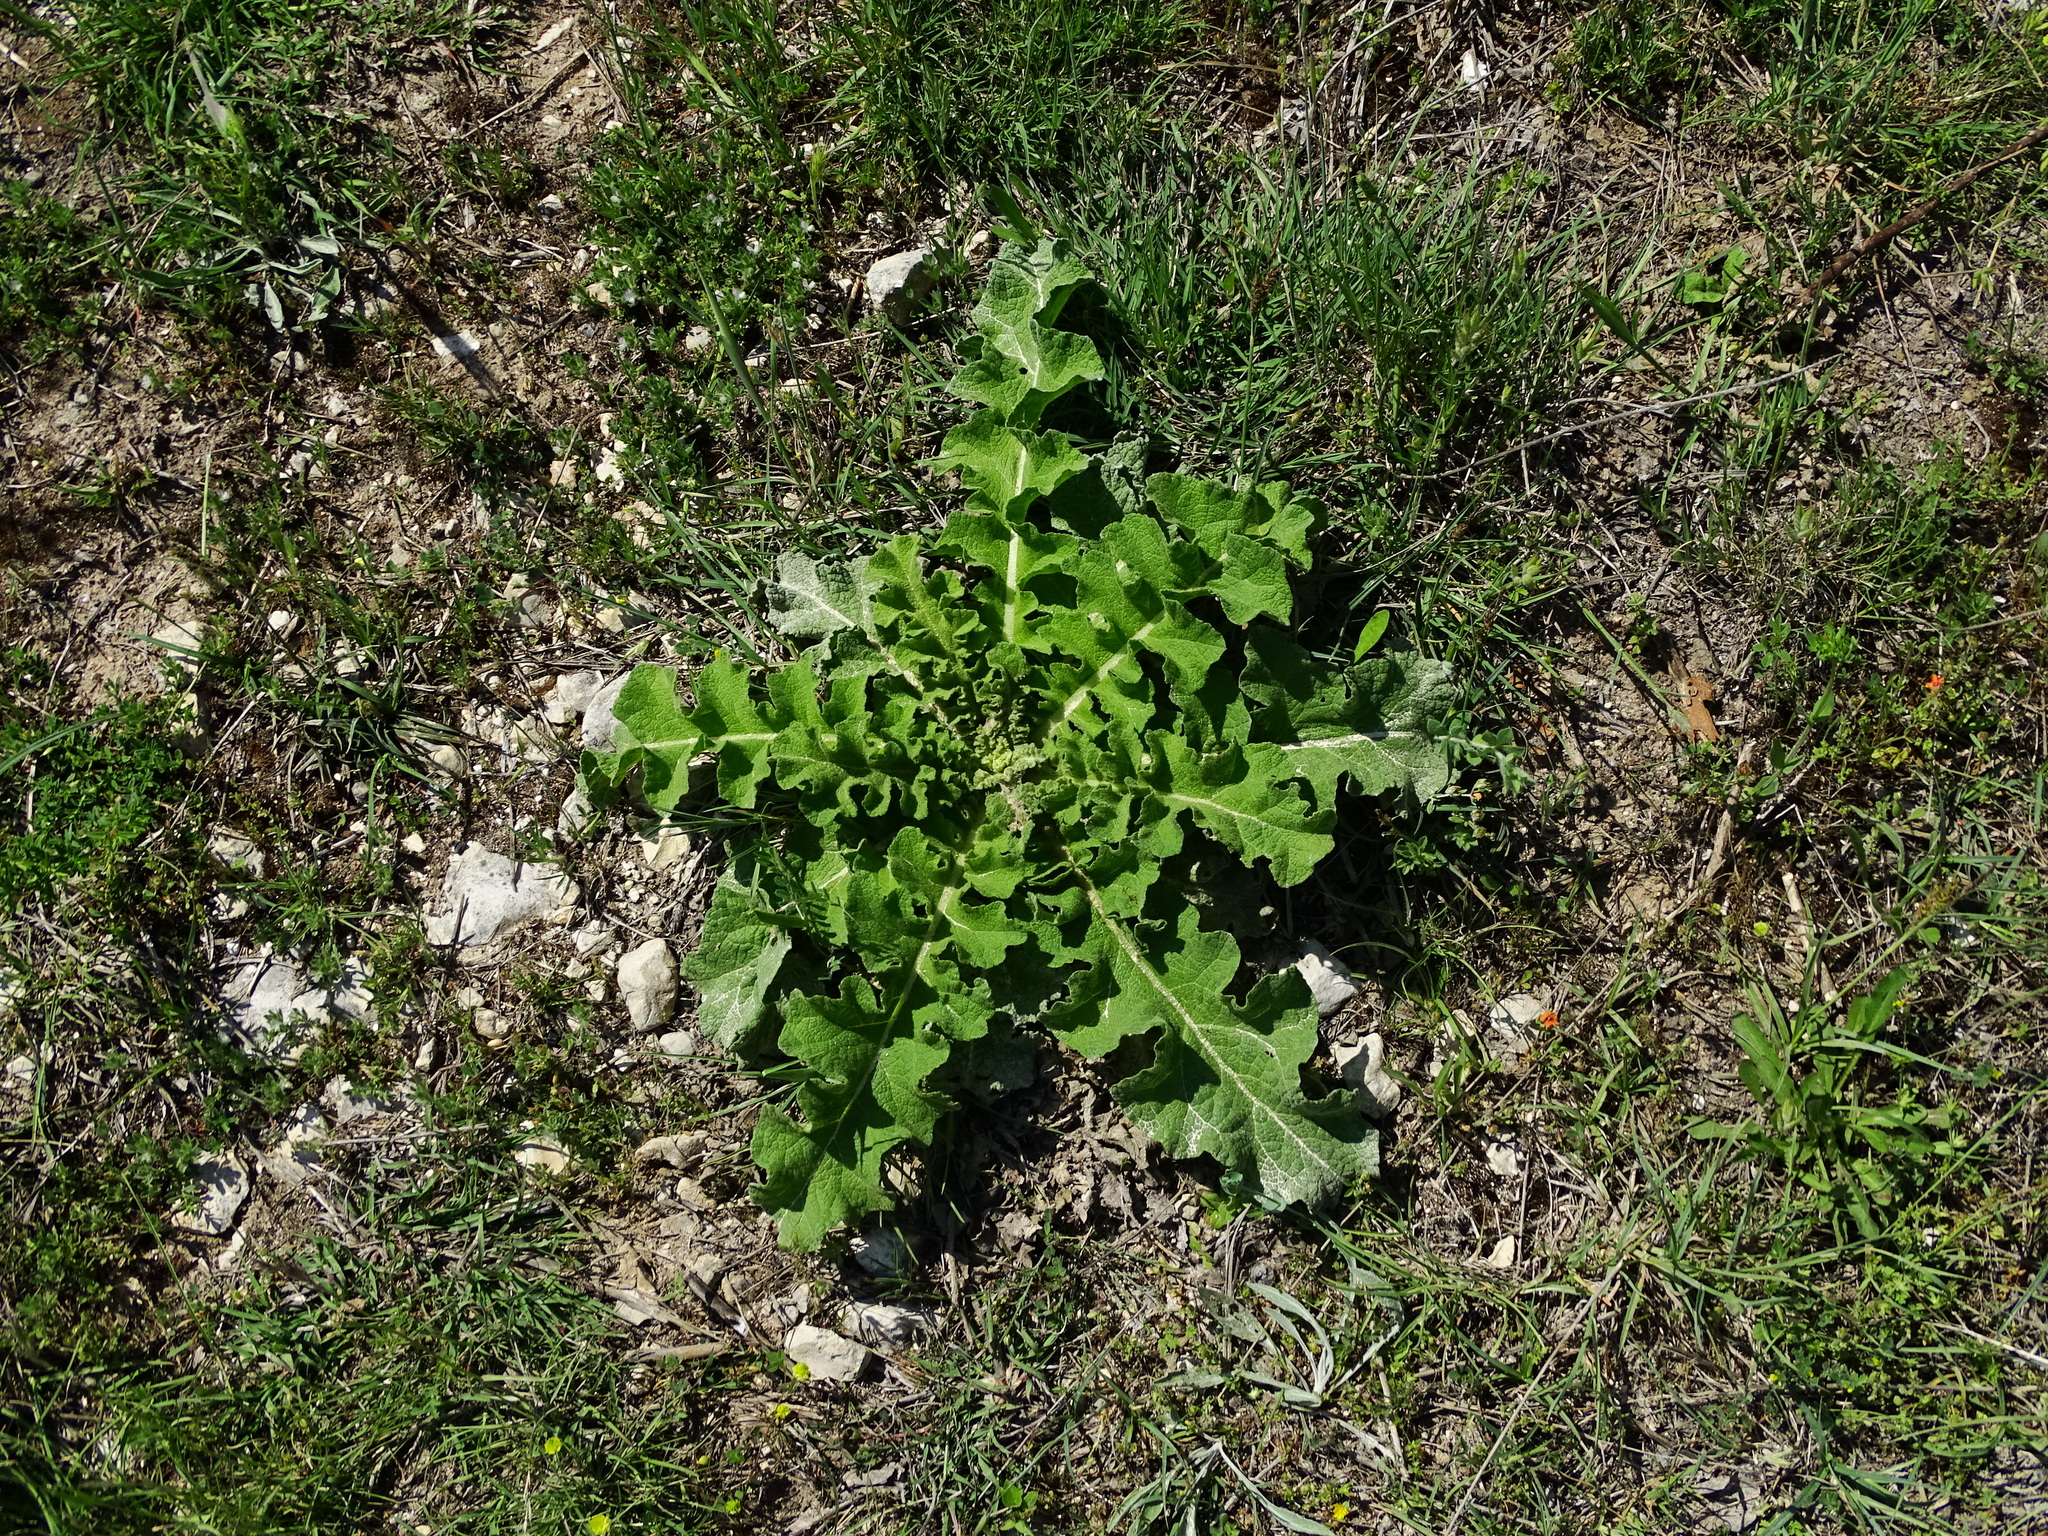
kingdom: Plantae
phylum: Tracheophyta
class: Magnoliopsida
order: Lamiales
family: Scrophulariaceae
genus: Verbascum
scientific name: Verbascum sinuatum
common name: Wavyleaf mullein
